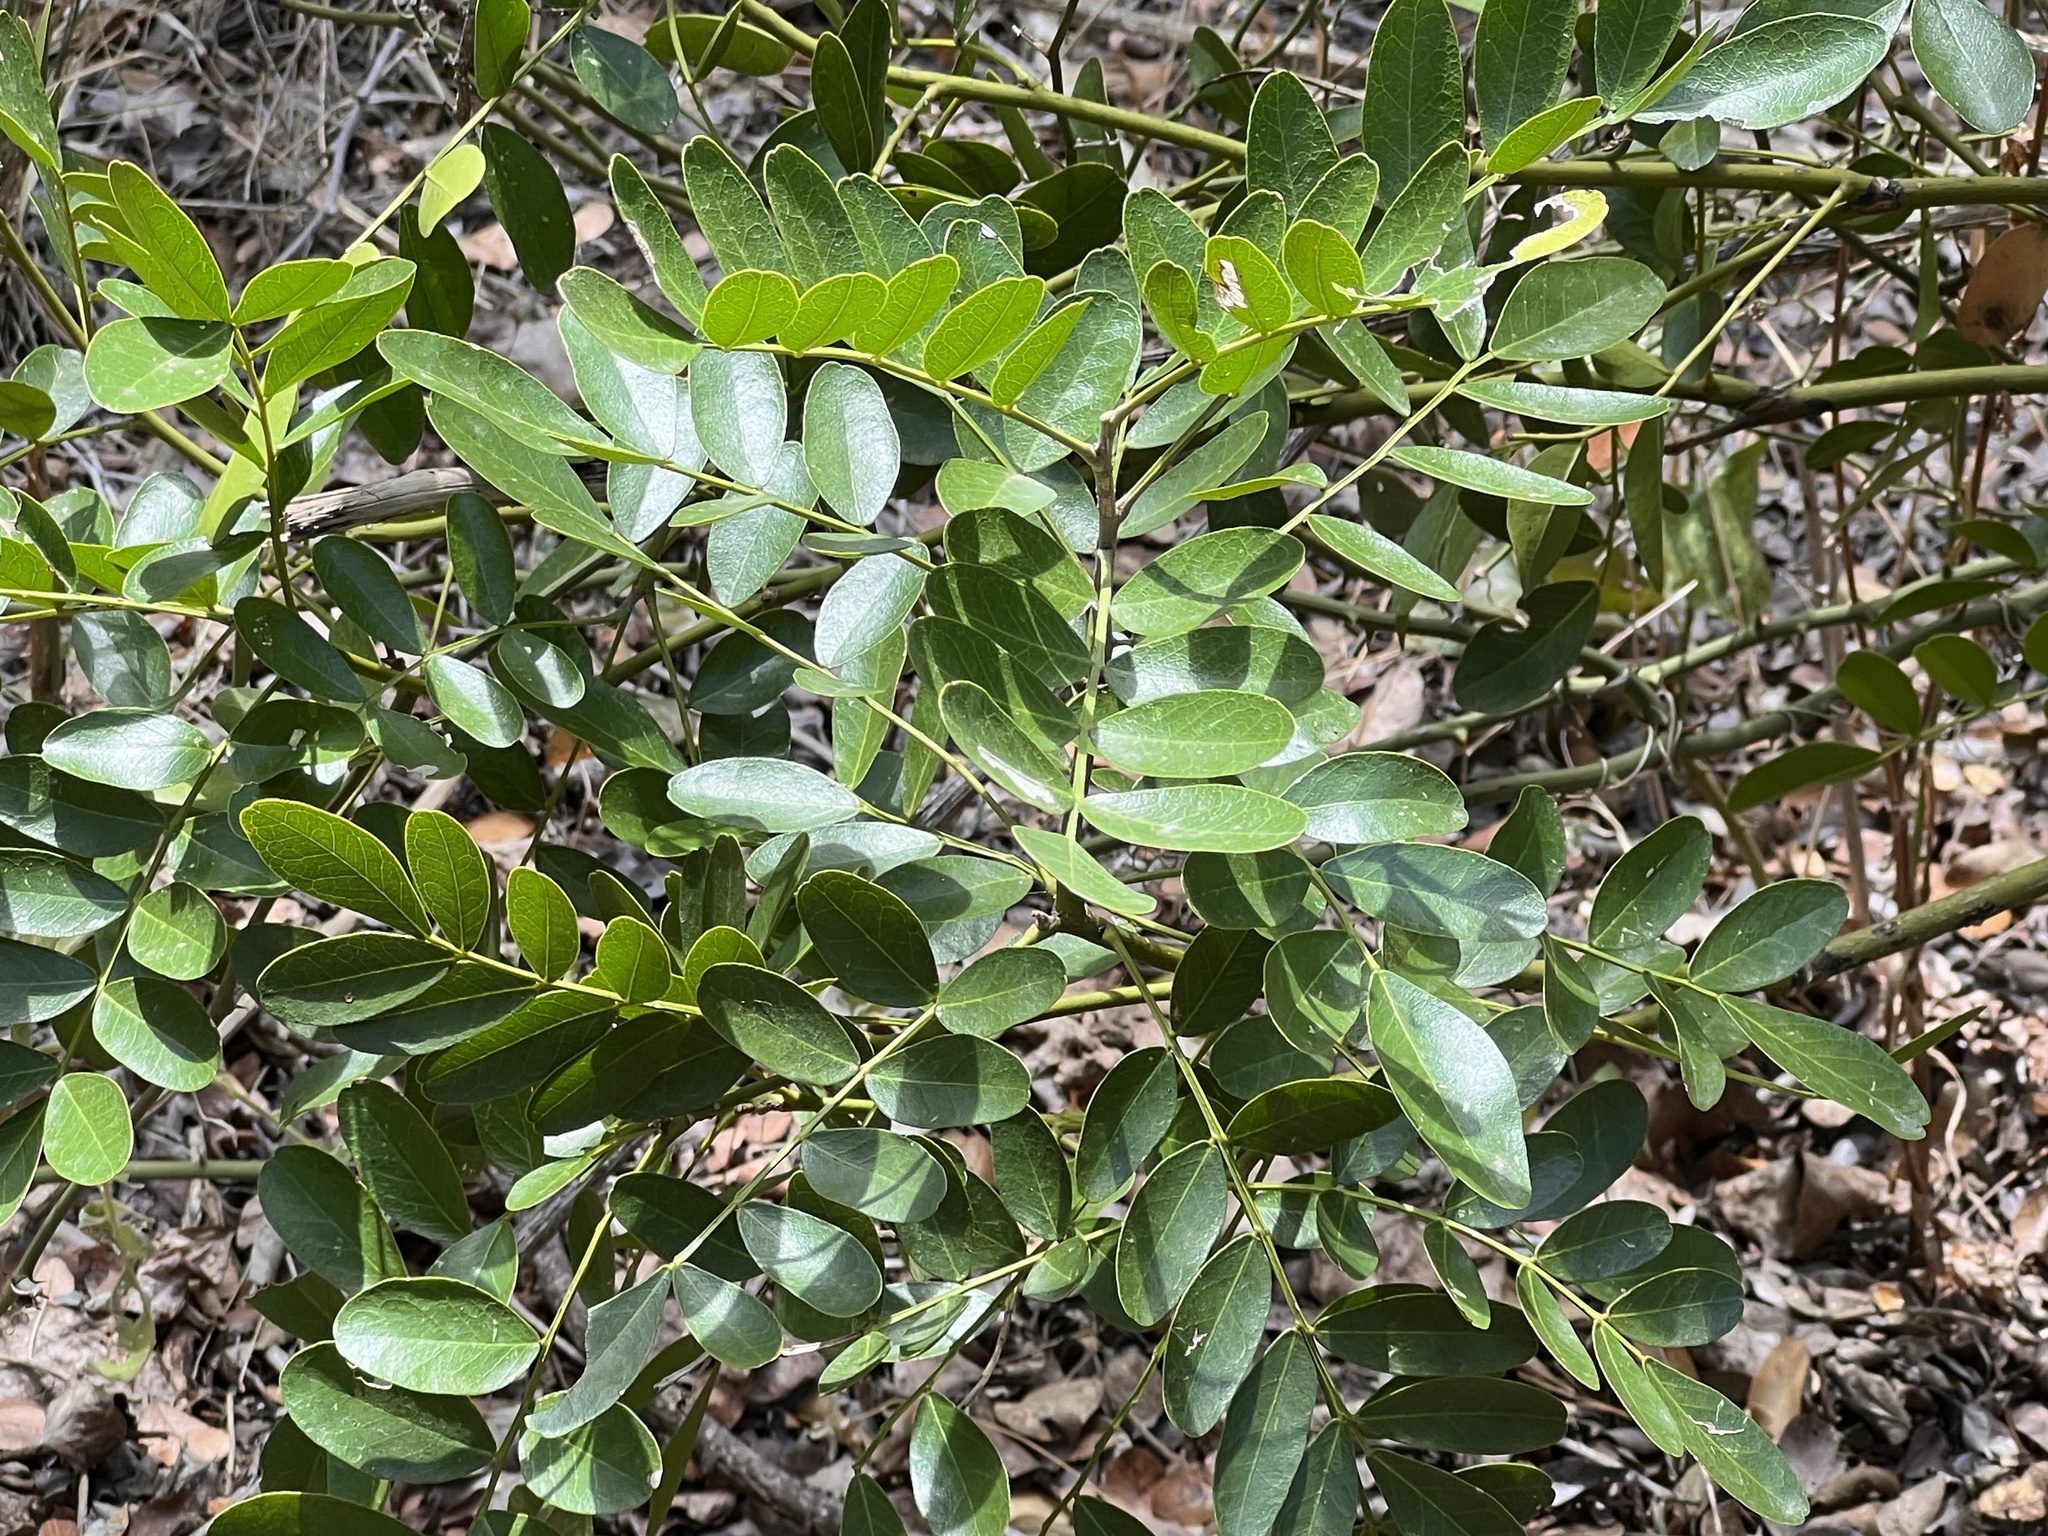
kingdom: Plantae
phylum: Tracheophyta
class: Magnoliopsida
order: Fabales
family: Fabaceae
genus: Dermatophyllum
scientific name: Dermatophyllum secundiflorum
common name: Texas-mountain-laurel
